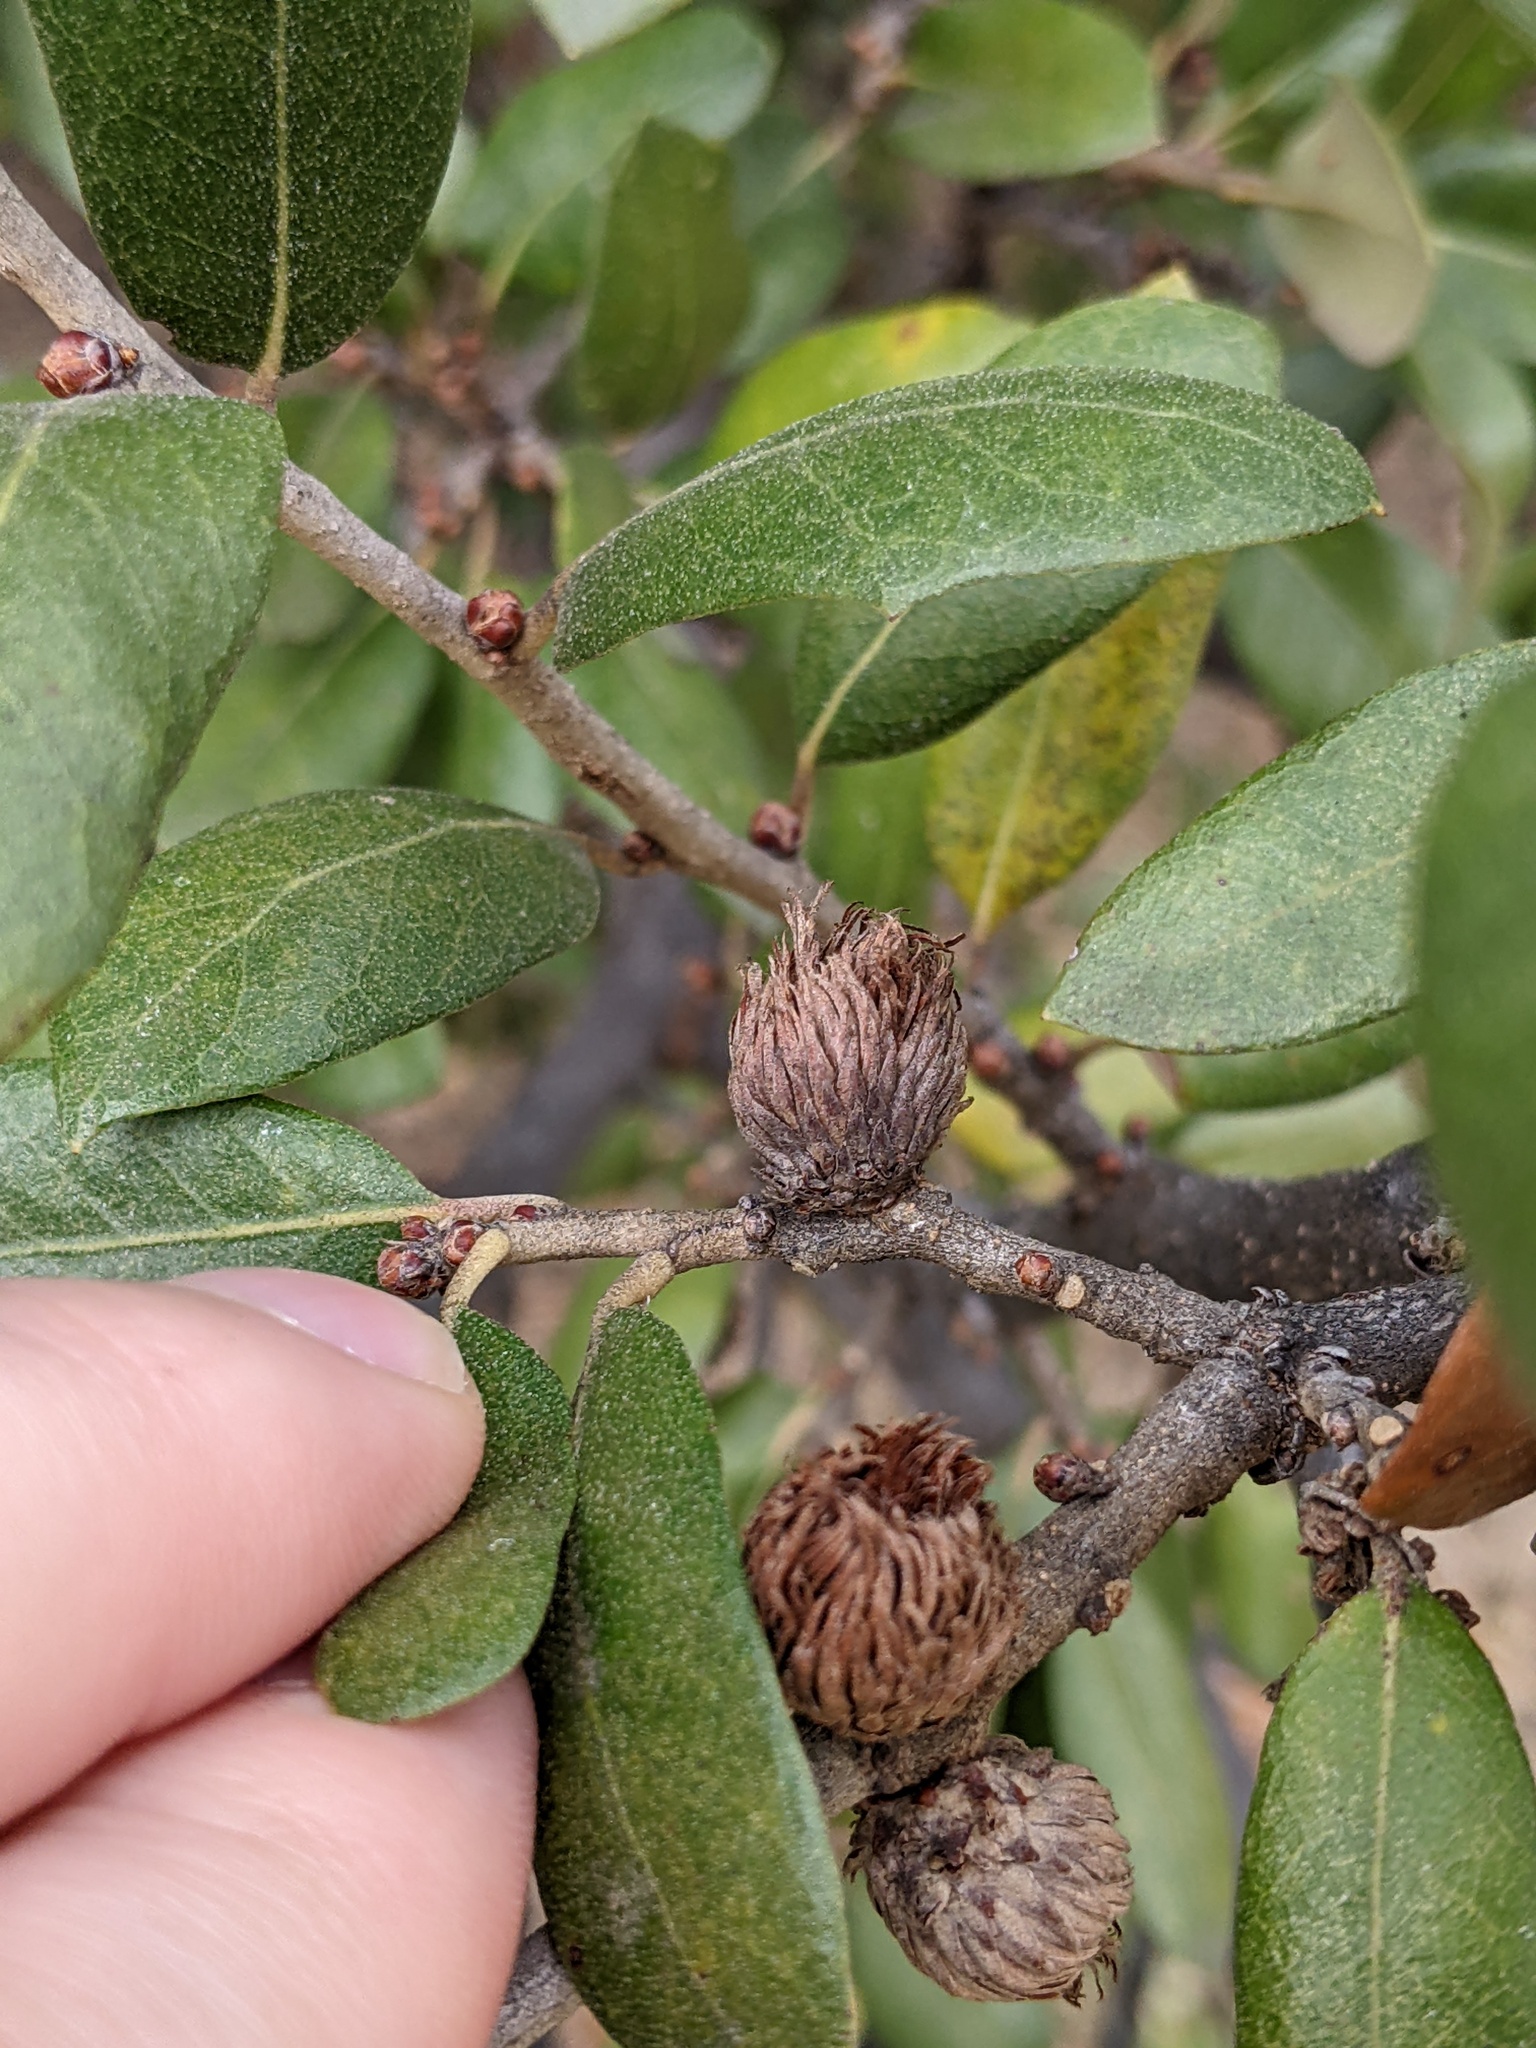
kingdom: Animalia
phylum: Arthropoda
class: Insecta
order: Hymenoptera
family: Cynipidae
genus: Andricus
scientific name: Andricus quercusfoliatus
